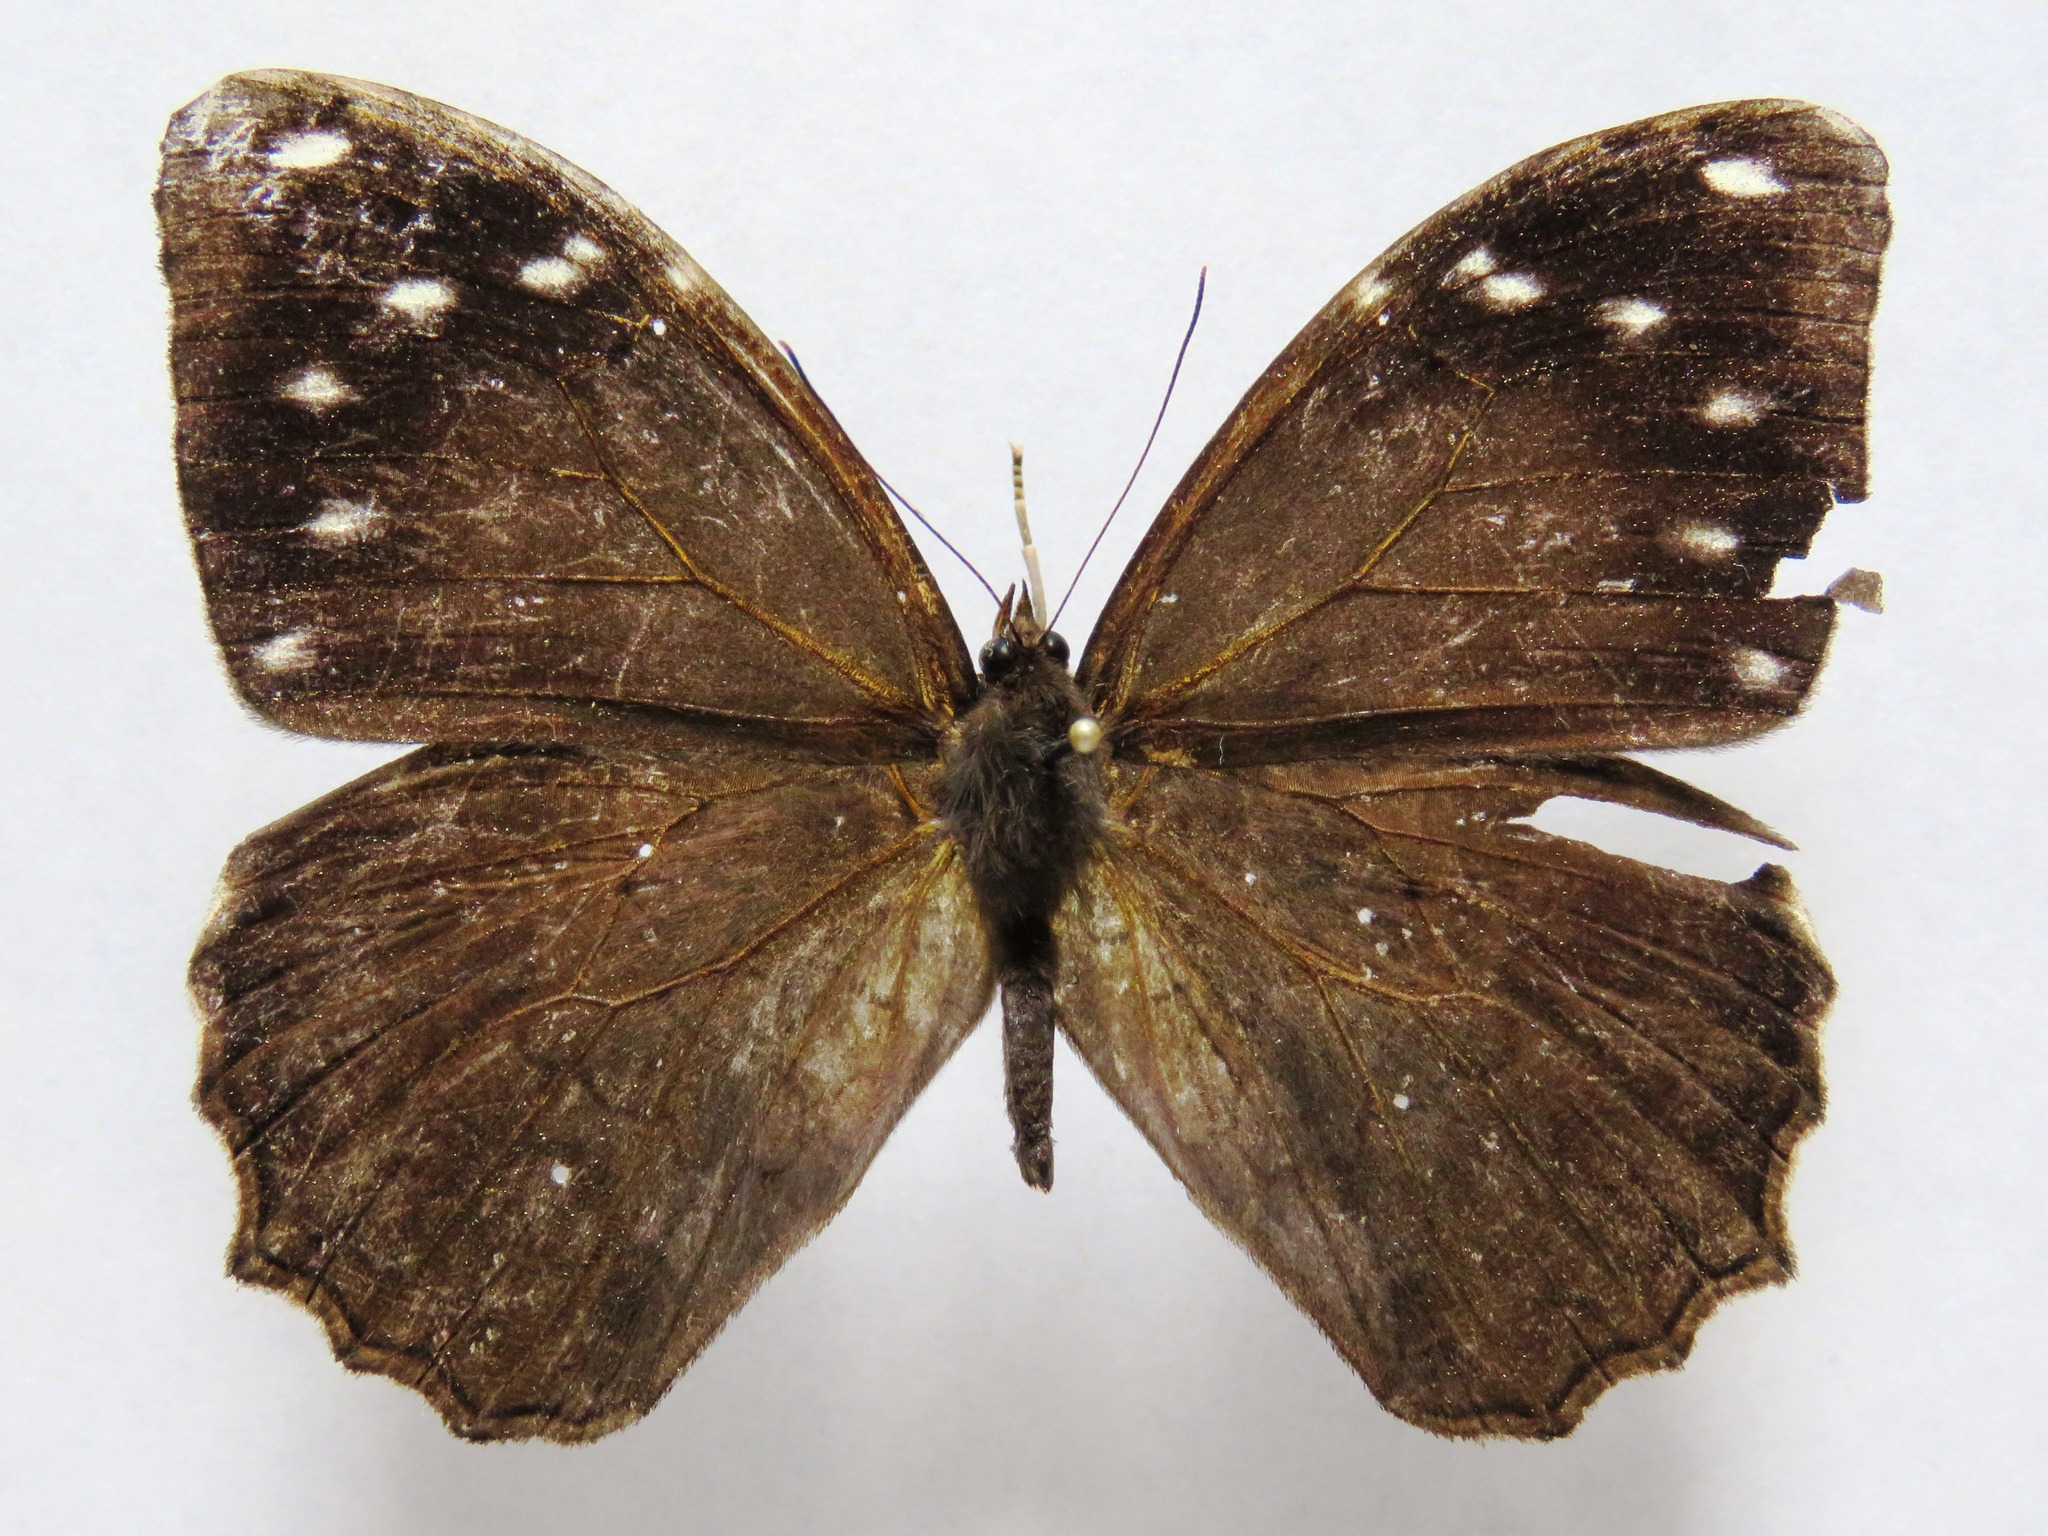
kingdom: Animalia
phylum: Arthropoda
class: Insecta
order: Lepidoptera
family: Nymphalidae
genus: Manataria
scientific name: Manataria maculata
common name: White-spotted satyr
